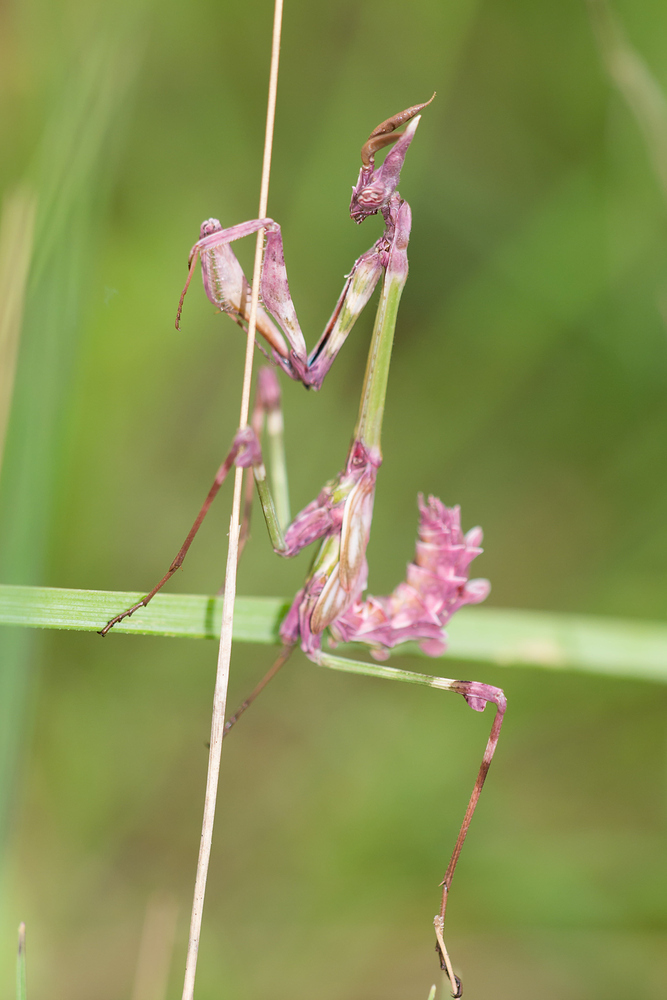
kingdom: Animalia
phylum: Arthropoda
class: Insecta
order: Mantodea
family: Empusidae
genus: Empusa
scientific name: Empusa pennata
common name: Conehead mantis
